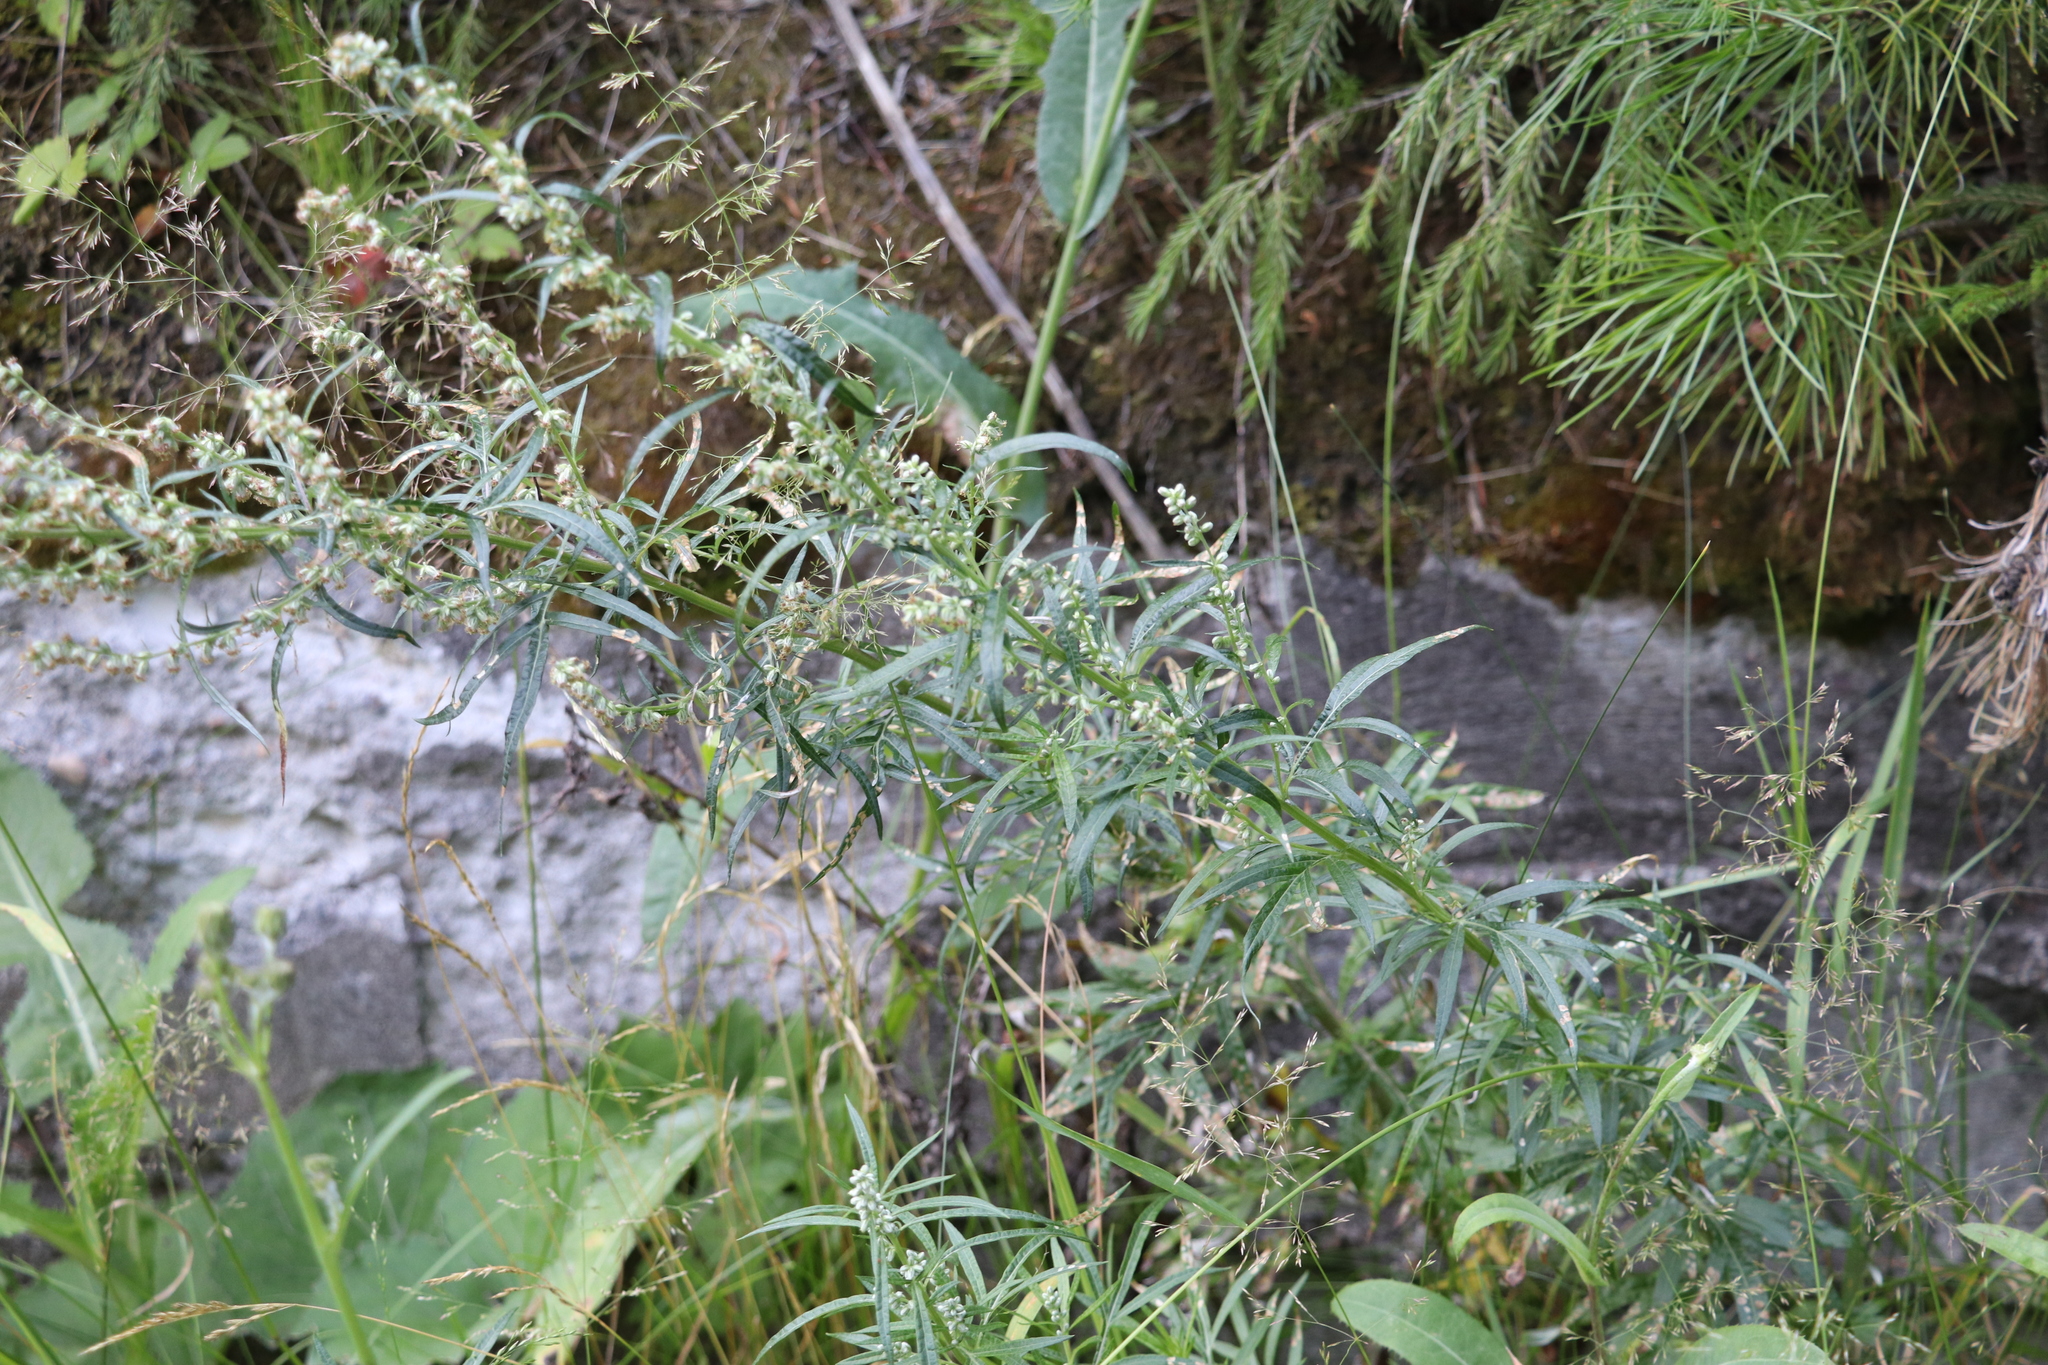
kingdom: Plantae
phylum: Tracheophyta
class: Magnoliopsida
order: Asterales
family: Asteraceae
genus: Artemisia
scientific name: Artemisia vulgaris
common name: Mugwort
